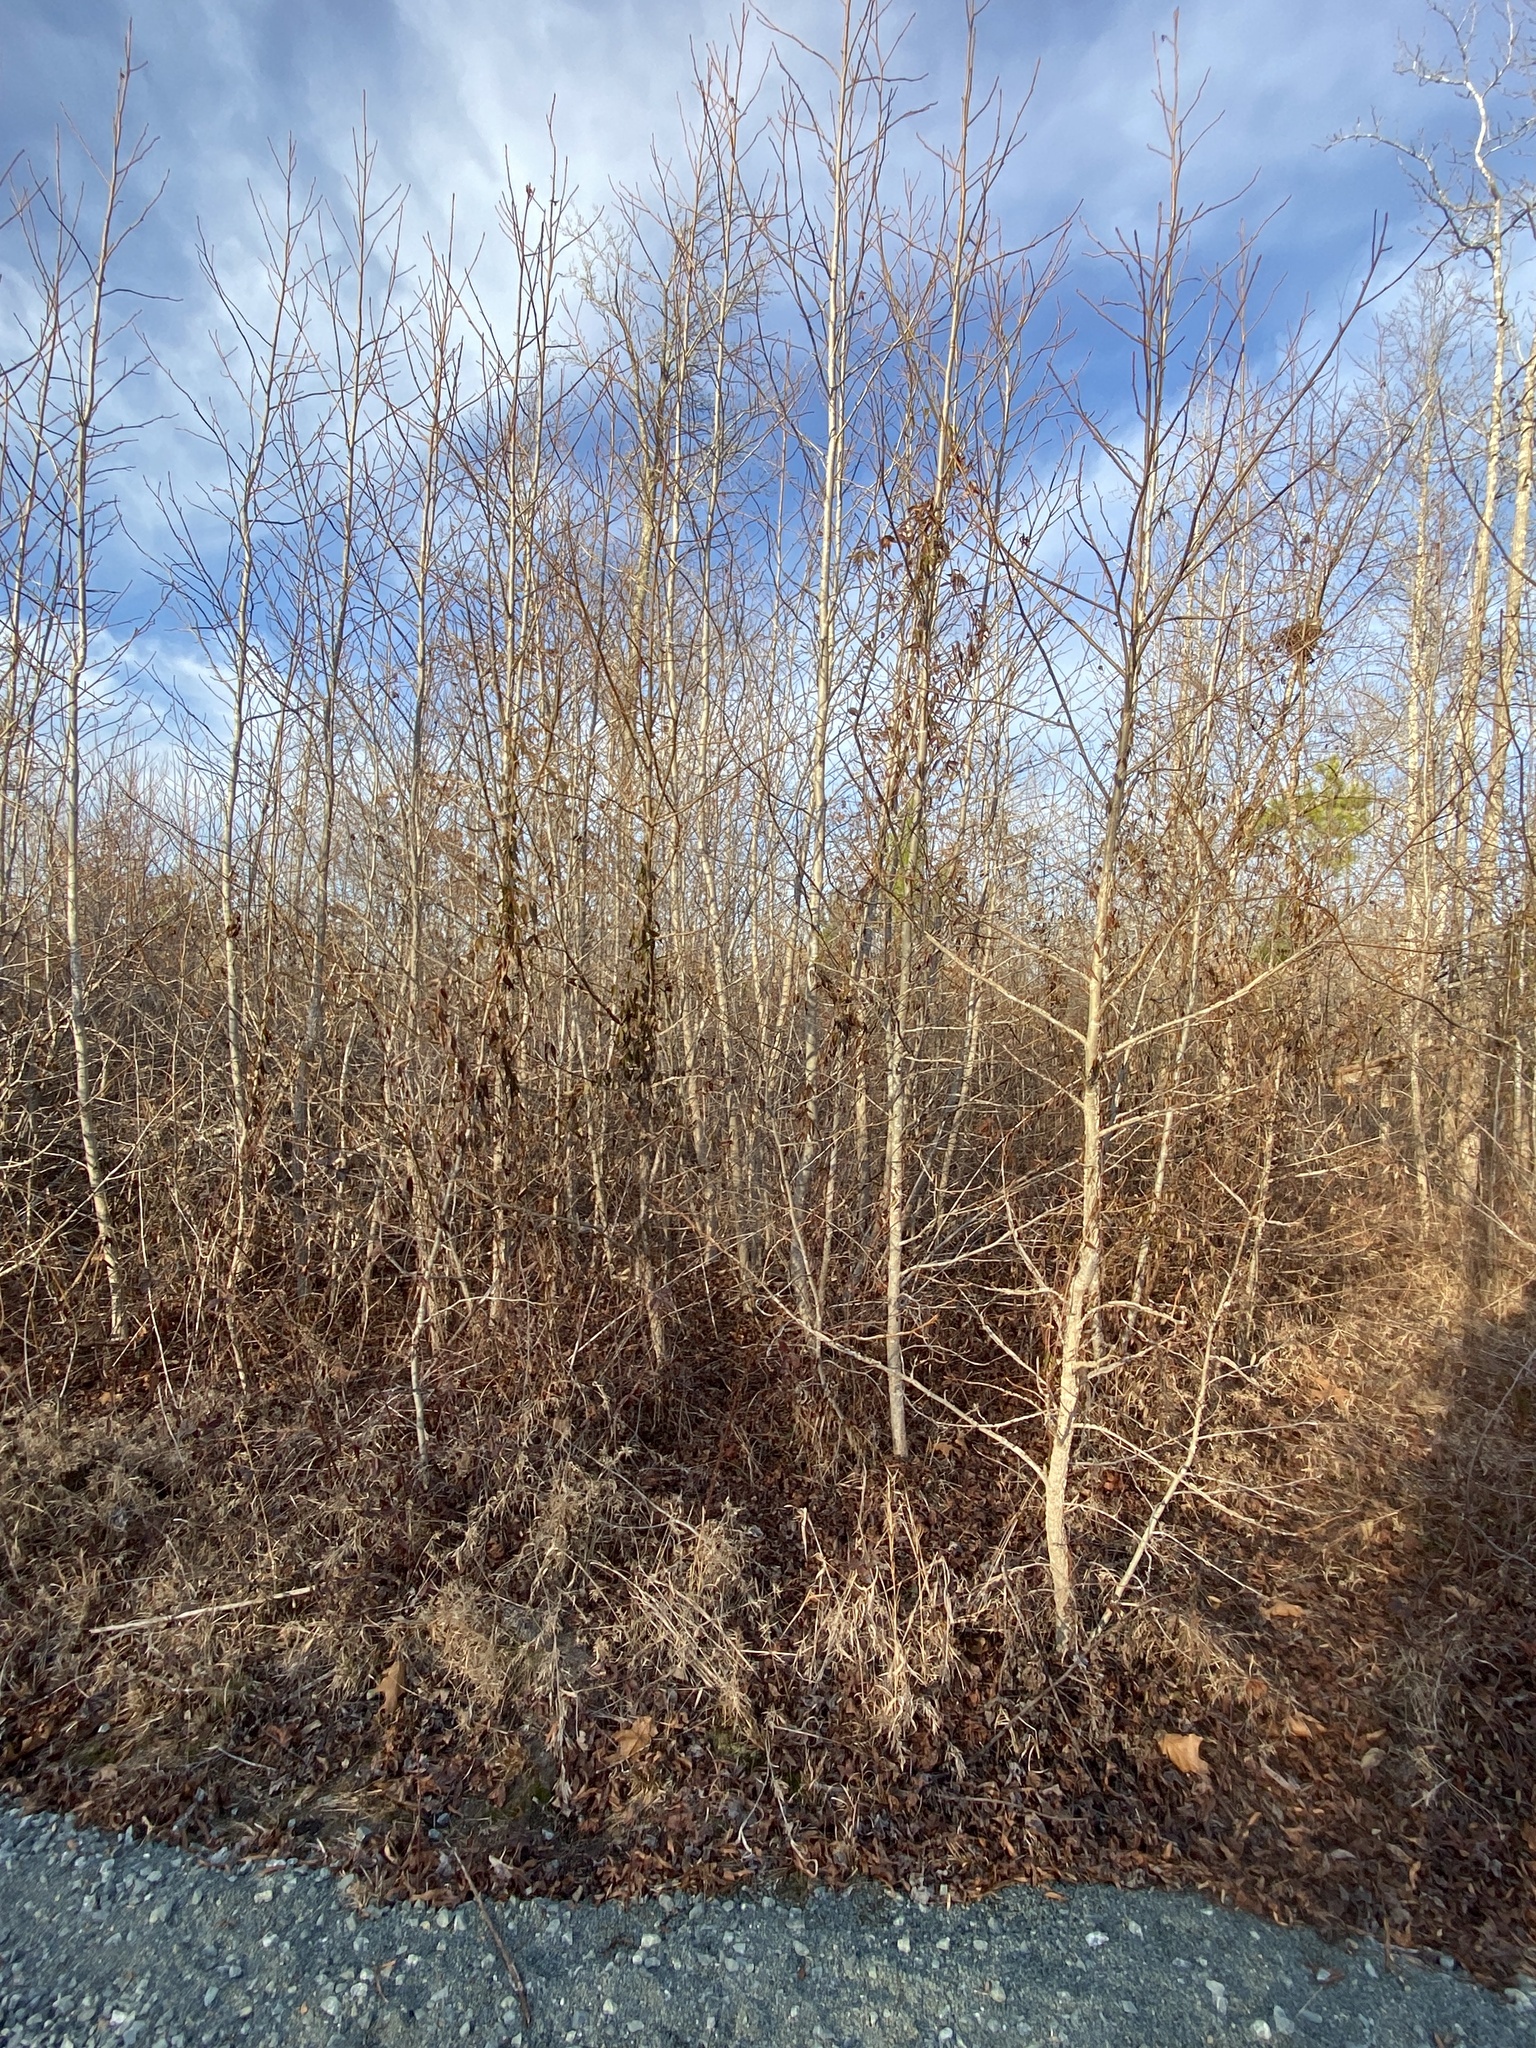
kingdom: Plantae
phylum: Tracheophyta
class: Magnoliopsida
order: Saxifragales
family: Altingiaceae
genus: Liquidambar
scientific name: Liquidambar styraciflua
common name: Sweet gum
